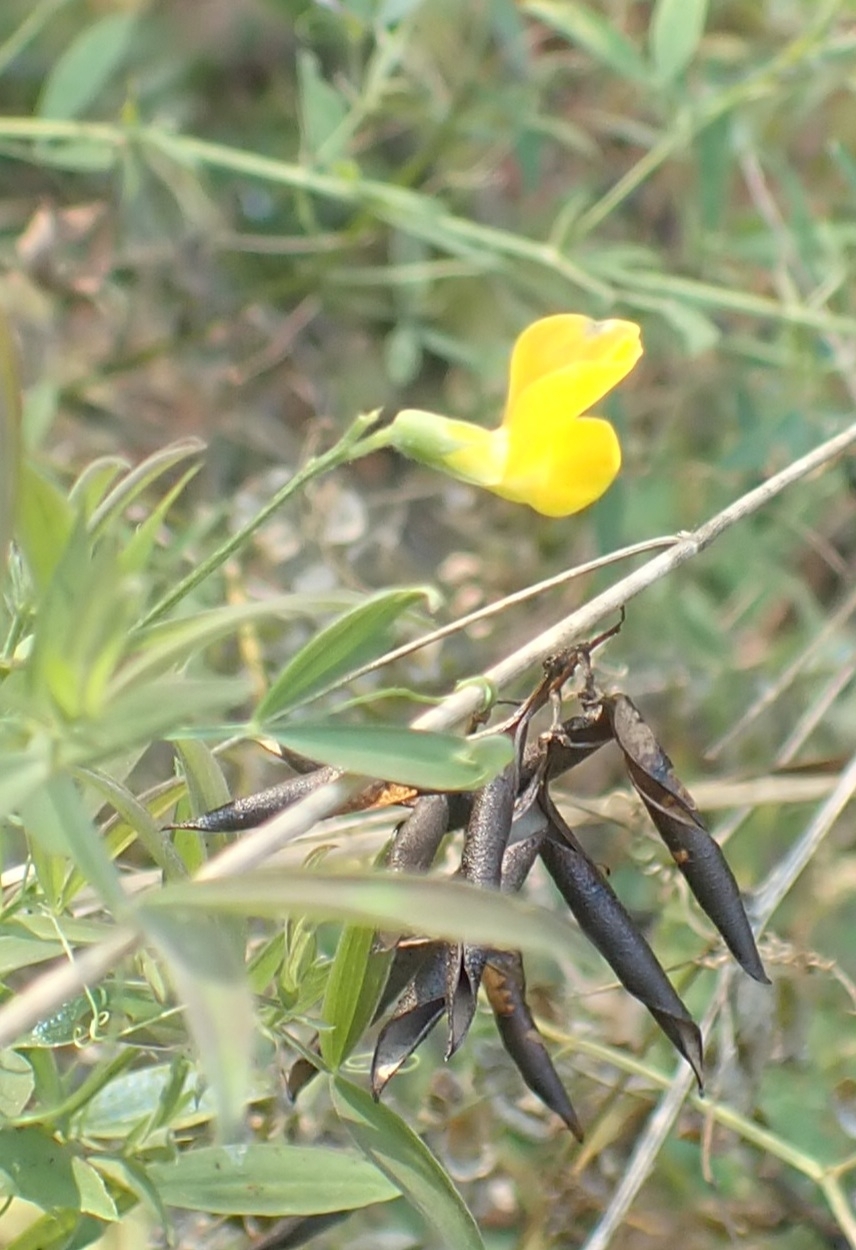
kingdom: Plantae
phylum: Tracheophyta
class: Magnoliopsida
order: Fabales
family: Fabaceae
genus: Lathyrus
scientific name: Lathyrus pratensis
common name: Meadow vetchling
